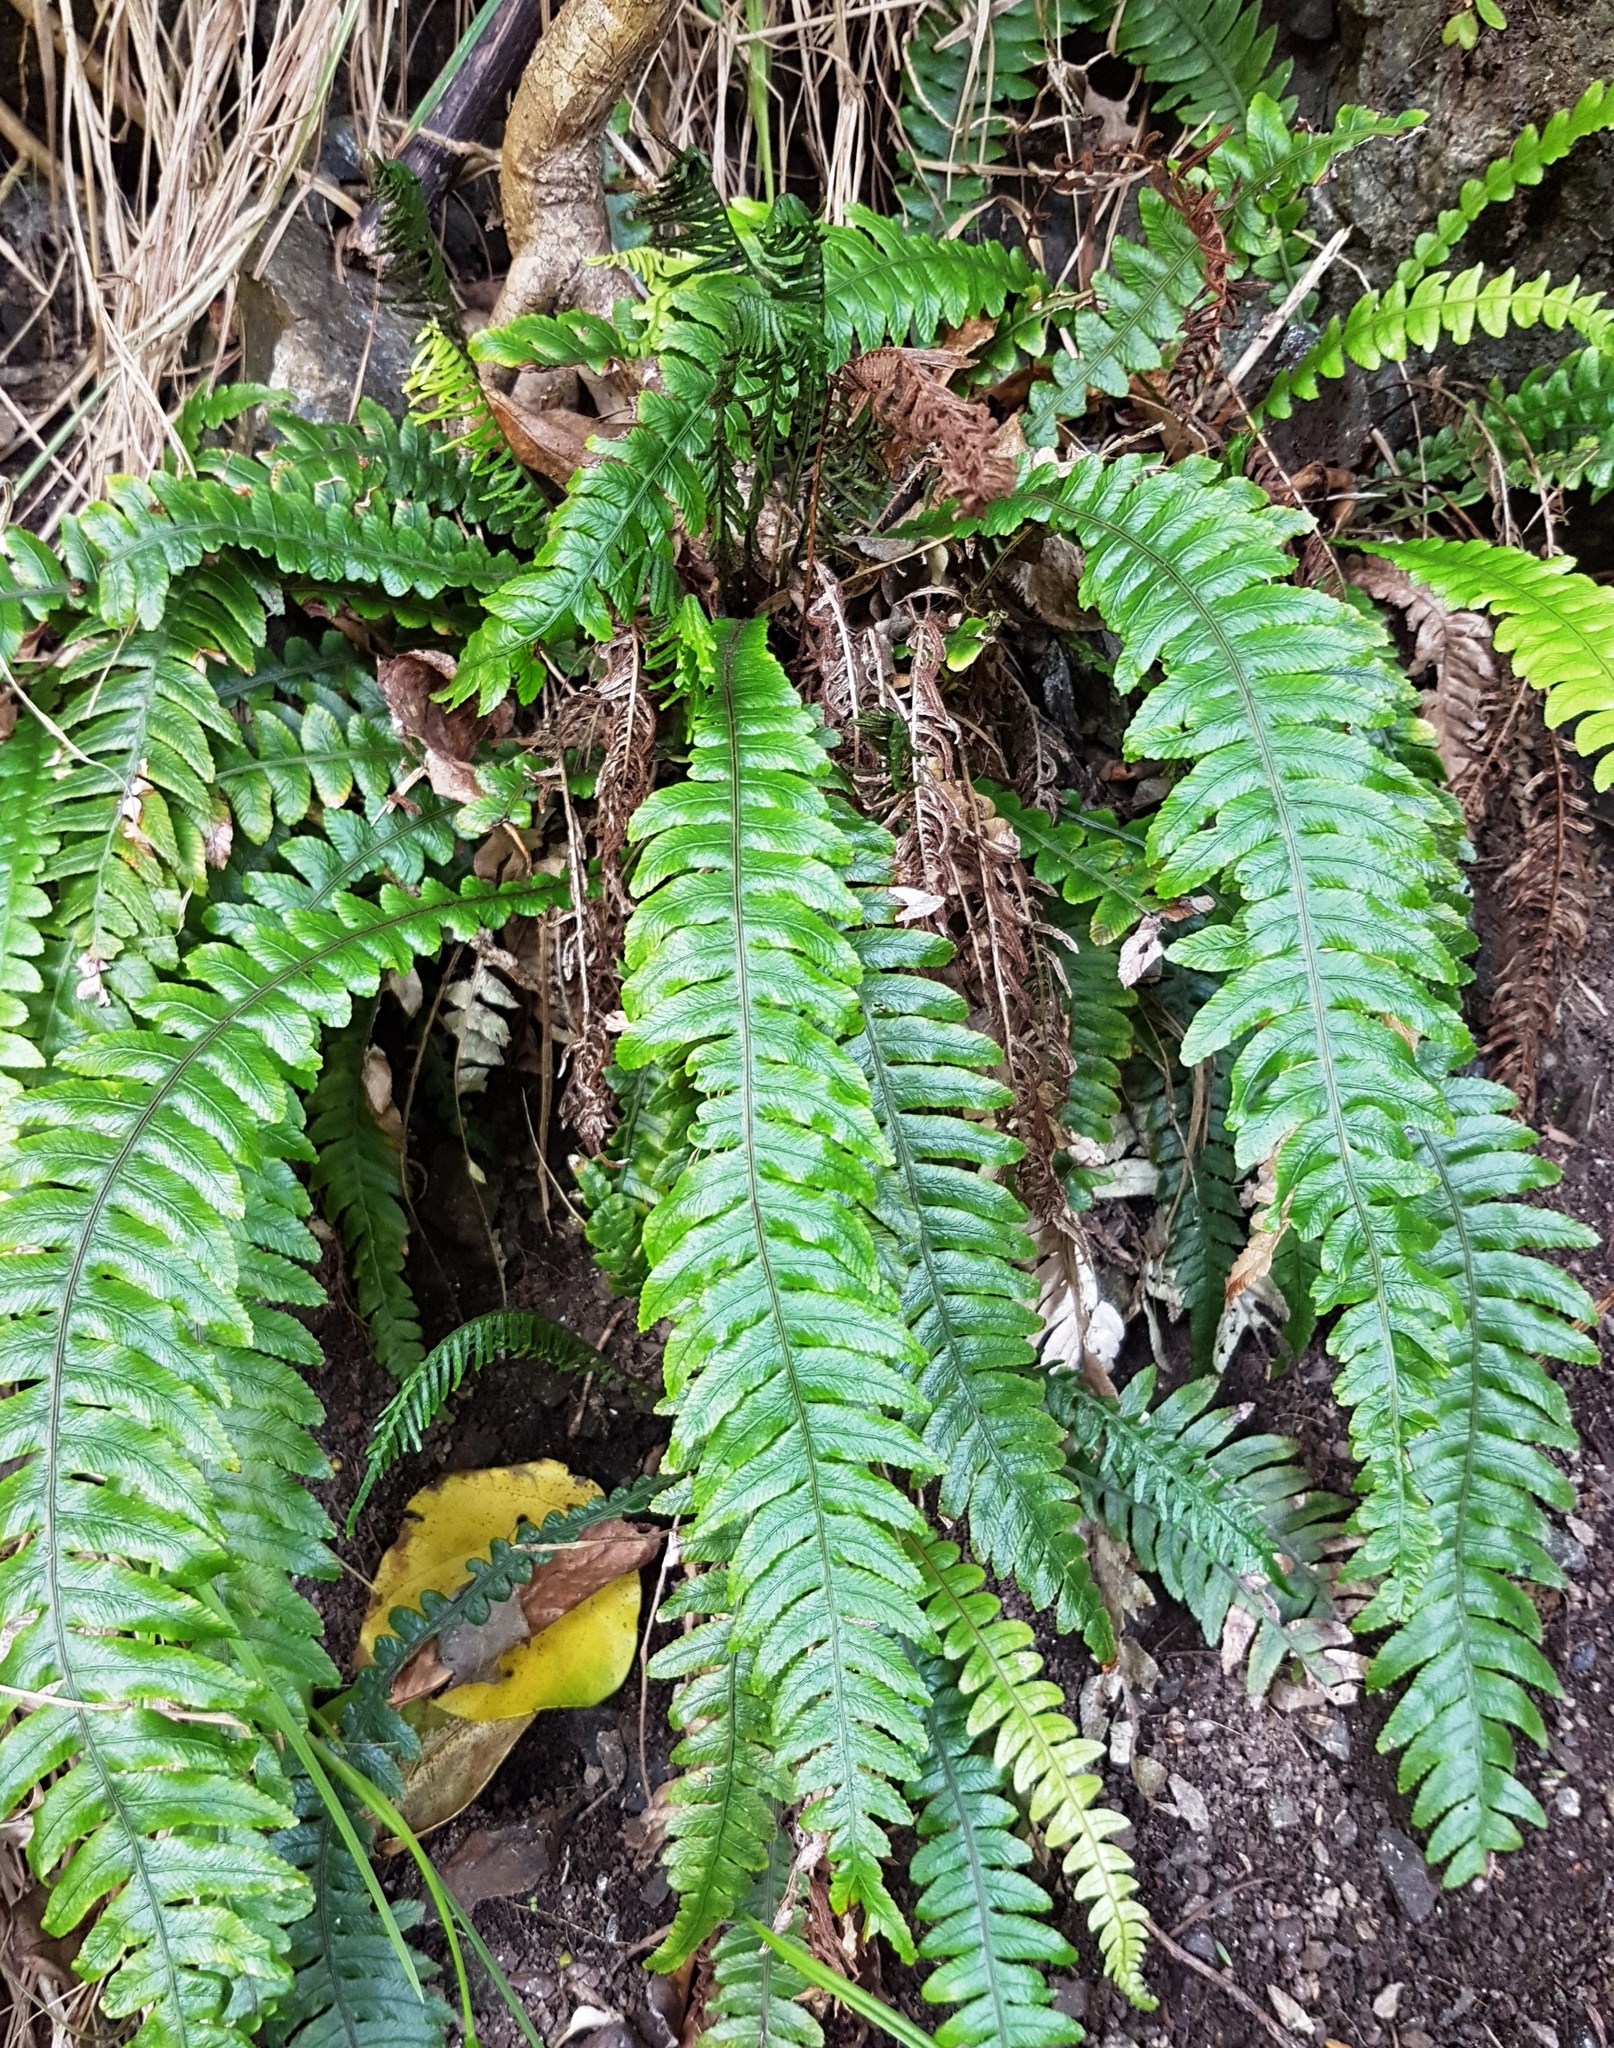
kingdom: Plantae
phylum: Tracheophyta
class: Polypodiopsida
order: Polypodiales
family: Blechnaceae
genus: Austroblechnum
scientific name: Austroblechnum lanceolatum
